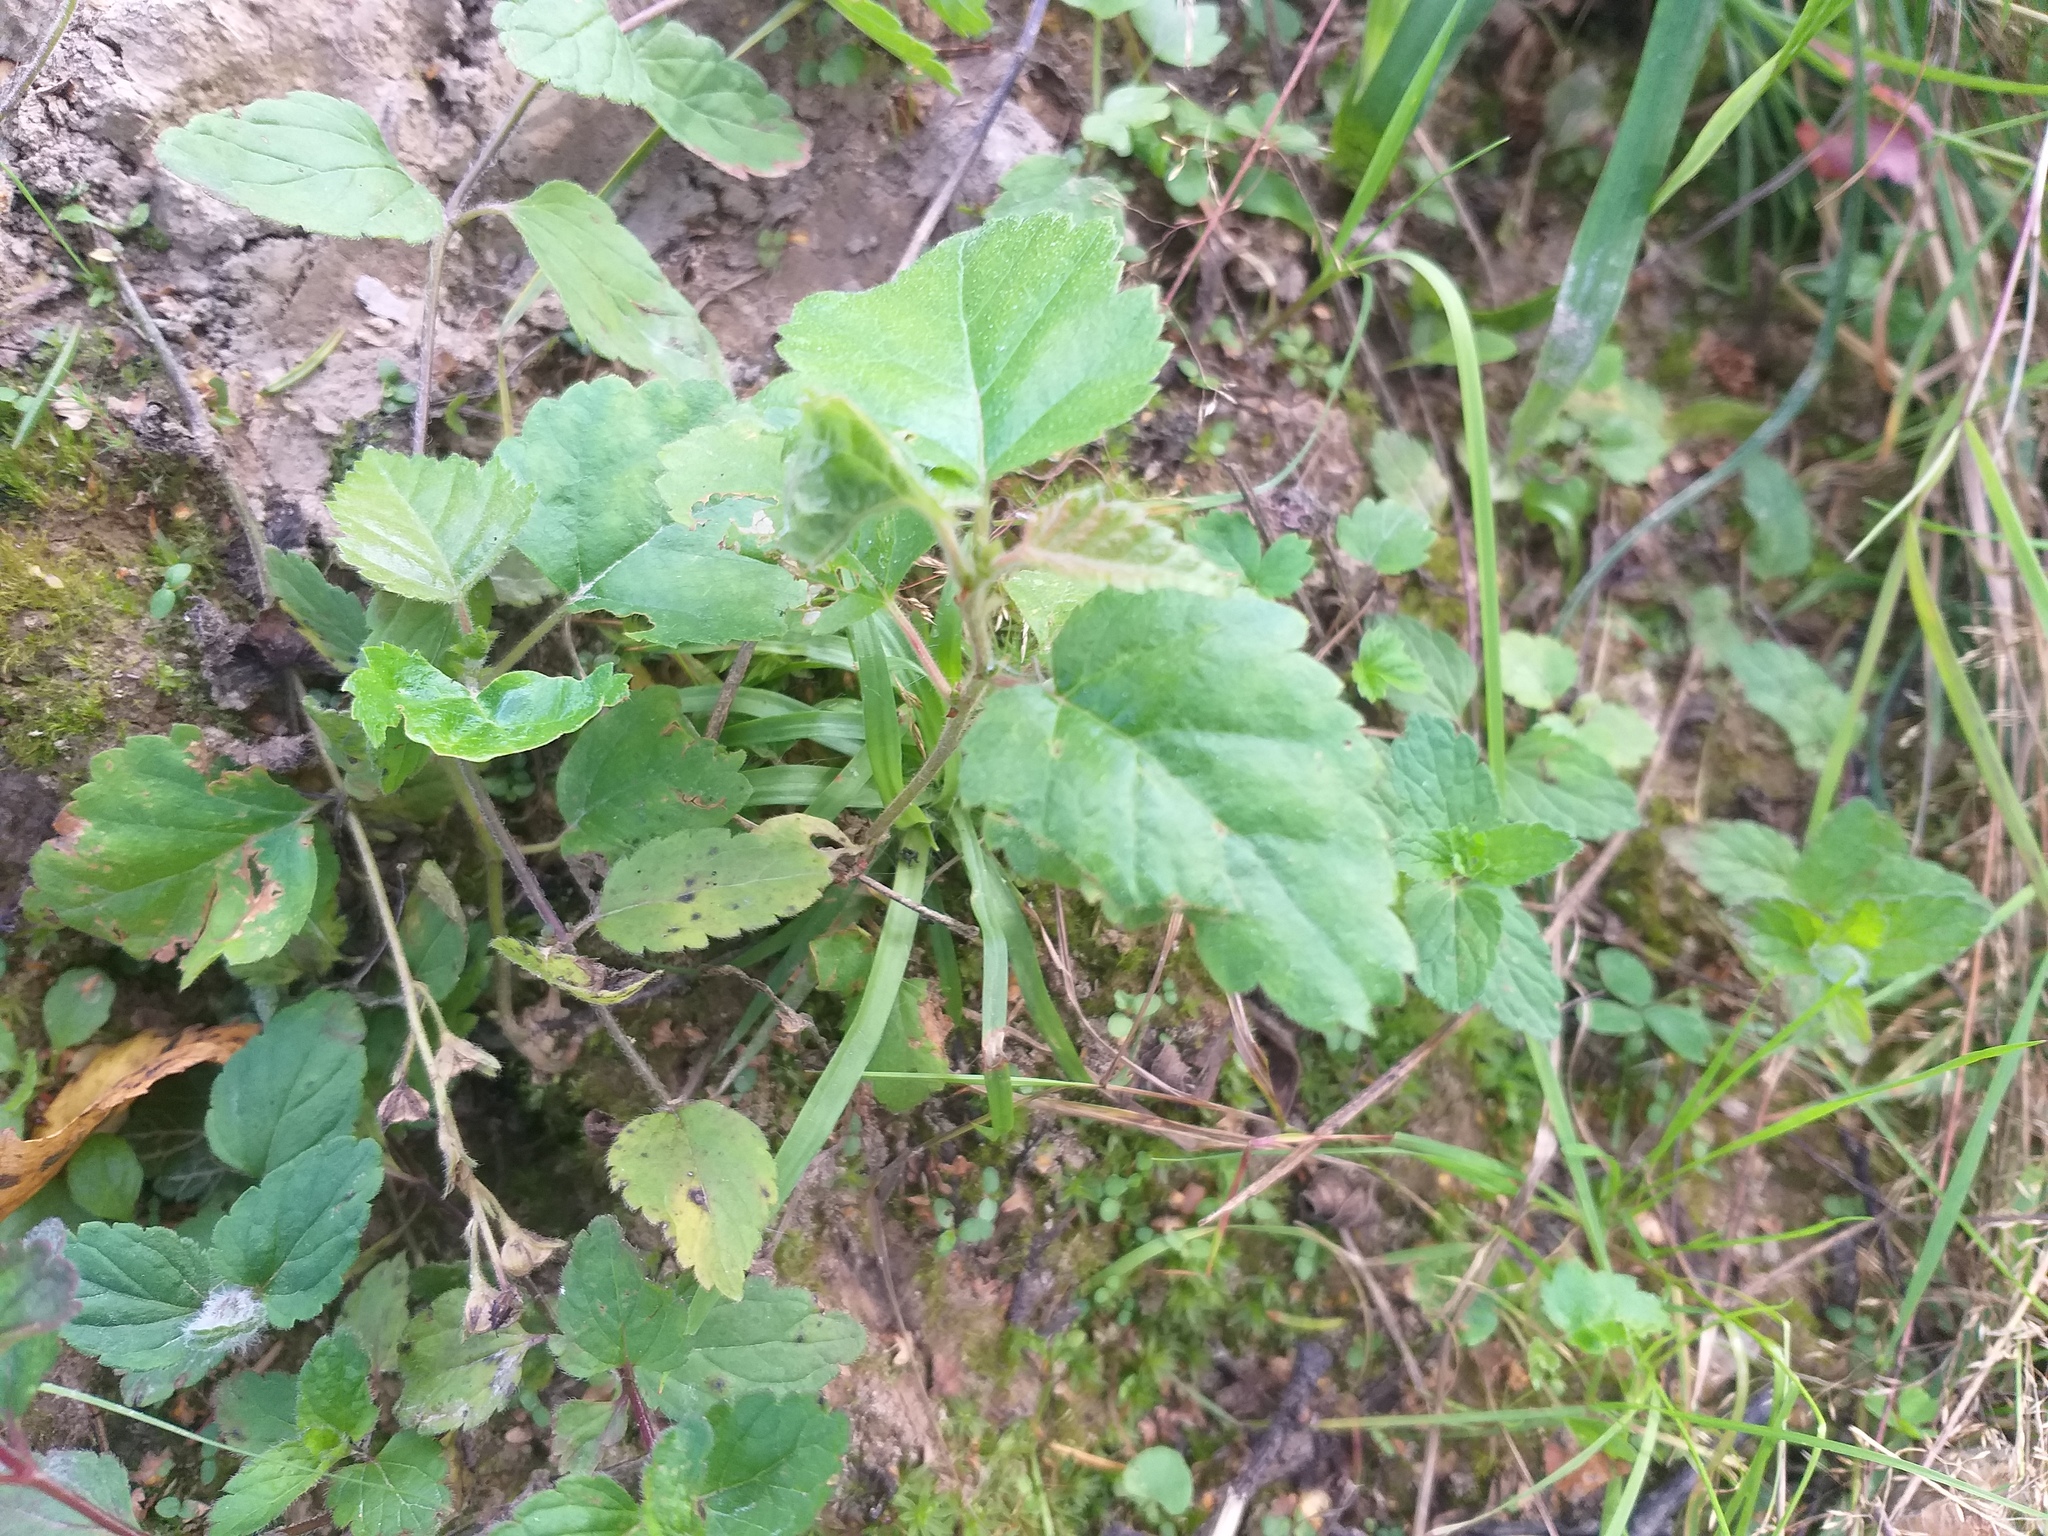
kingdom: Plantae
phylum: Tracheophyta
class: Magnoliopsida
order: Fagales
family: Betulaceae
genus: Betula
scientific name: Betula pubescens
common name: Downy birch
